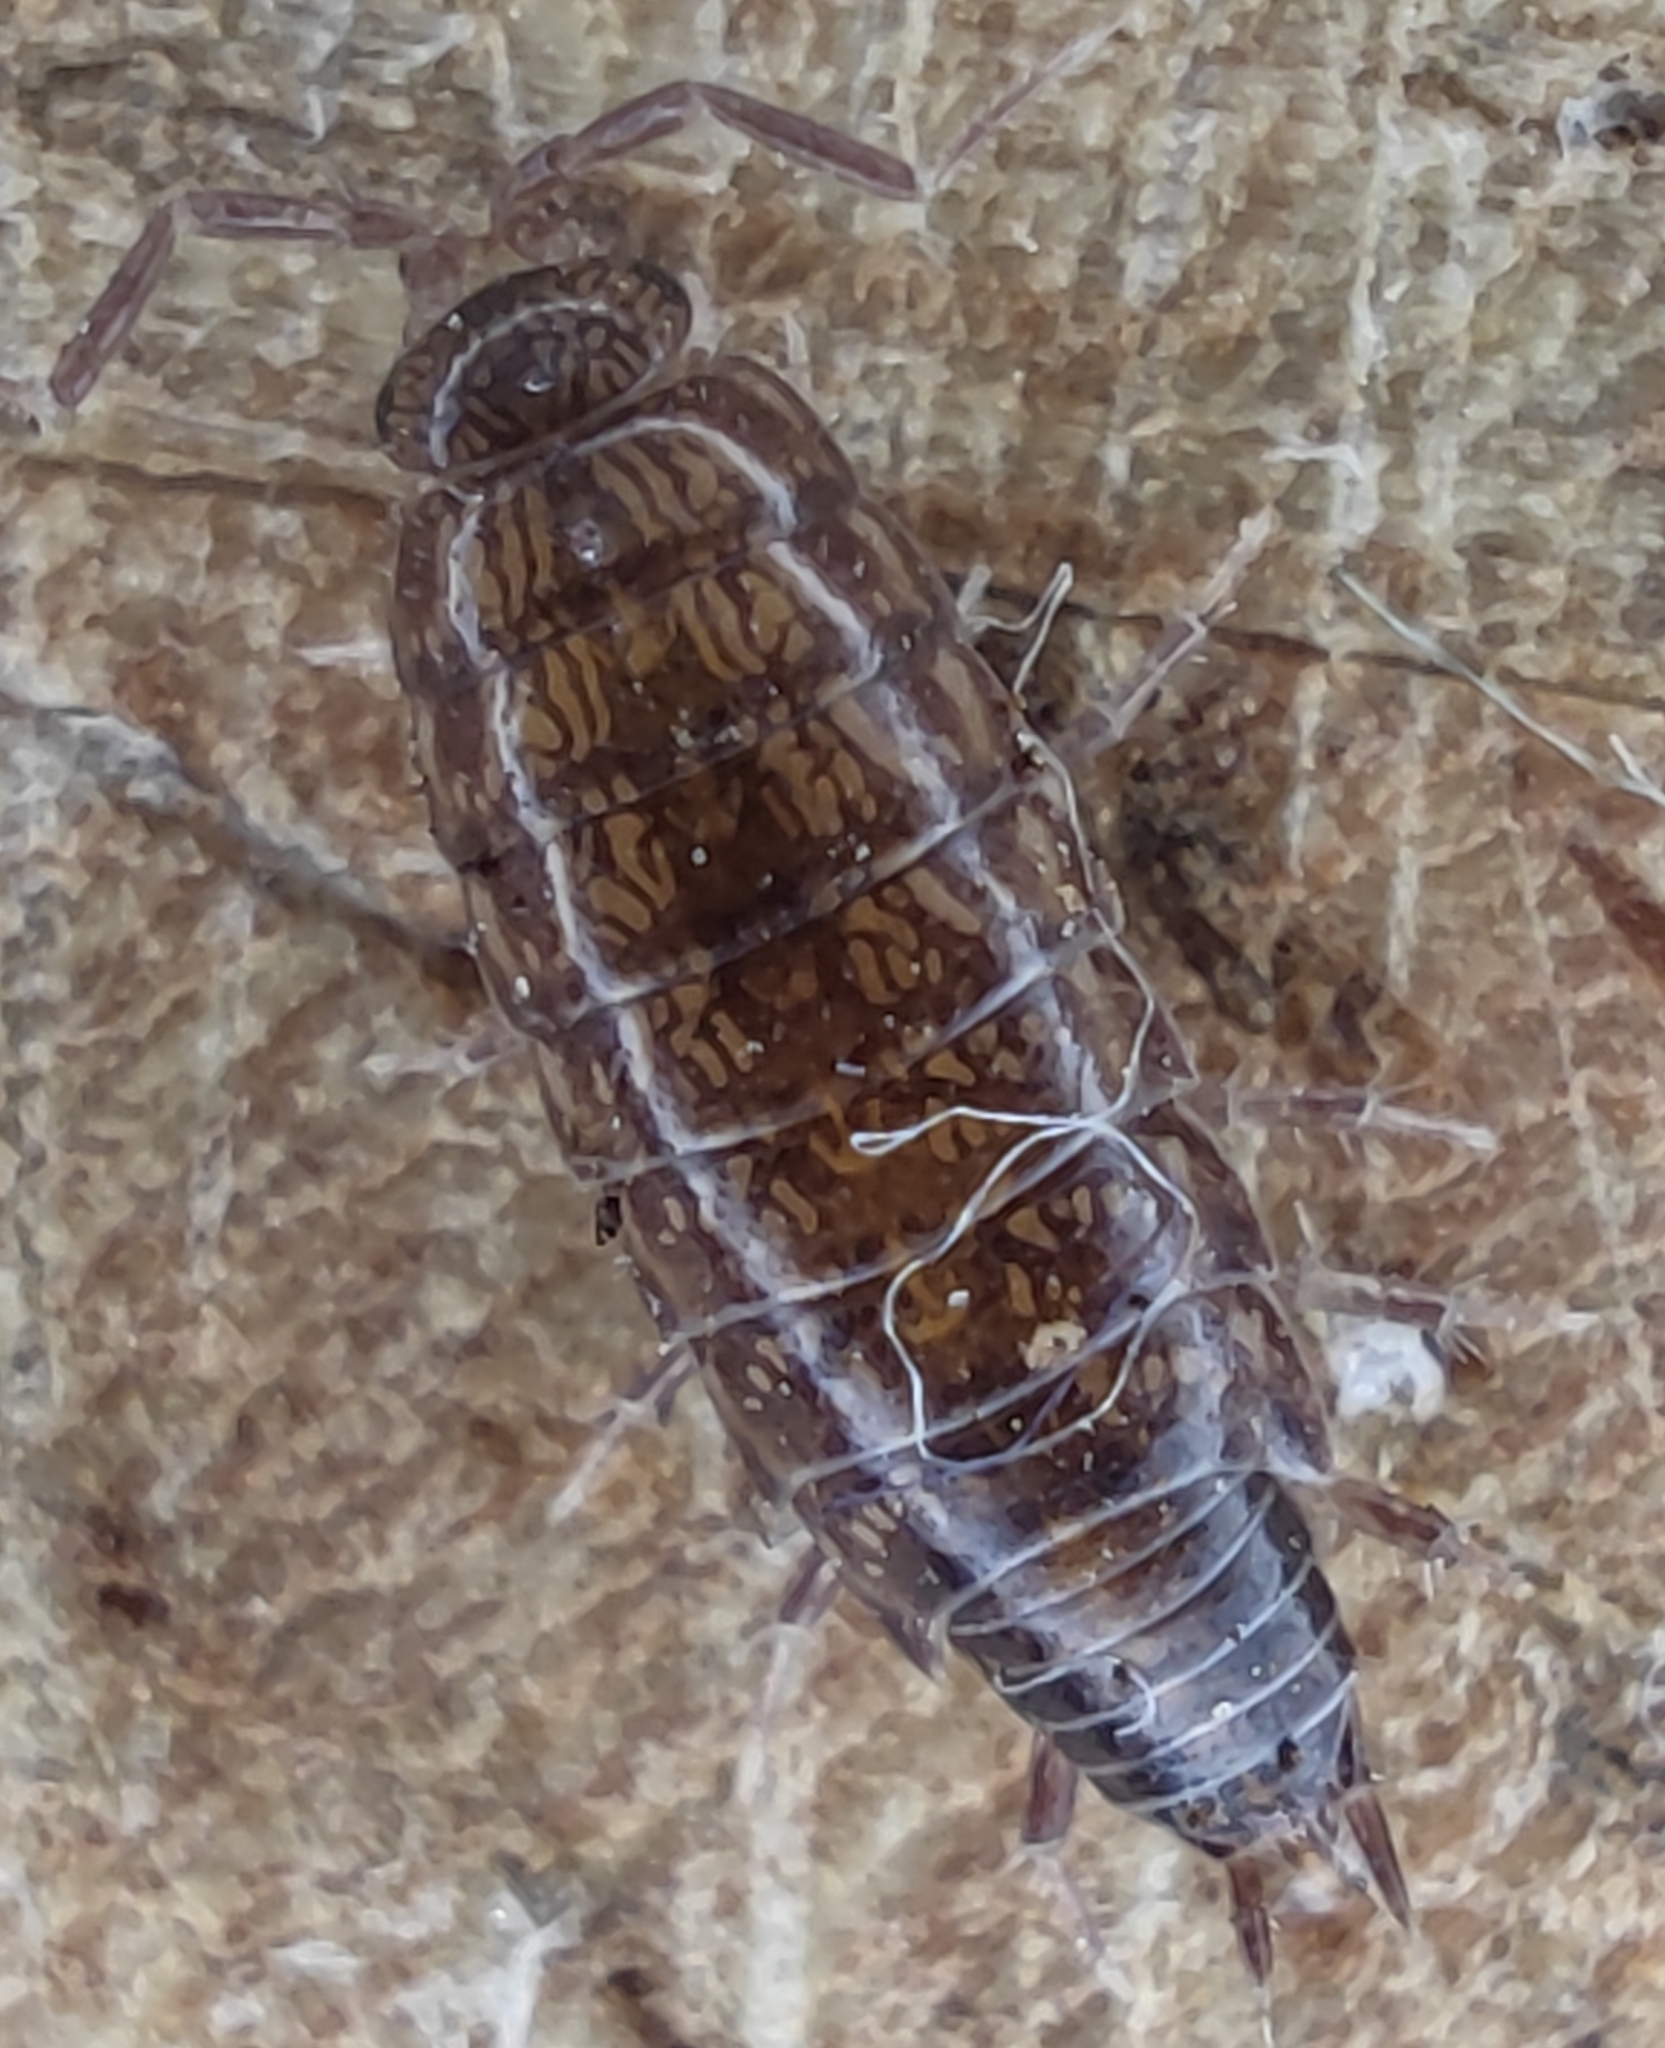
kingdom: Animalia
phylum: Arthropoda
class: Malacostraca
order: Isopoda
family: Philosciidae
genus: Chaetophiloscia
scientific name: Chaetophiloscia sicula
